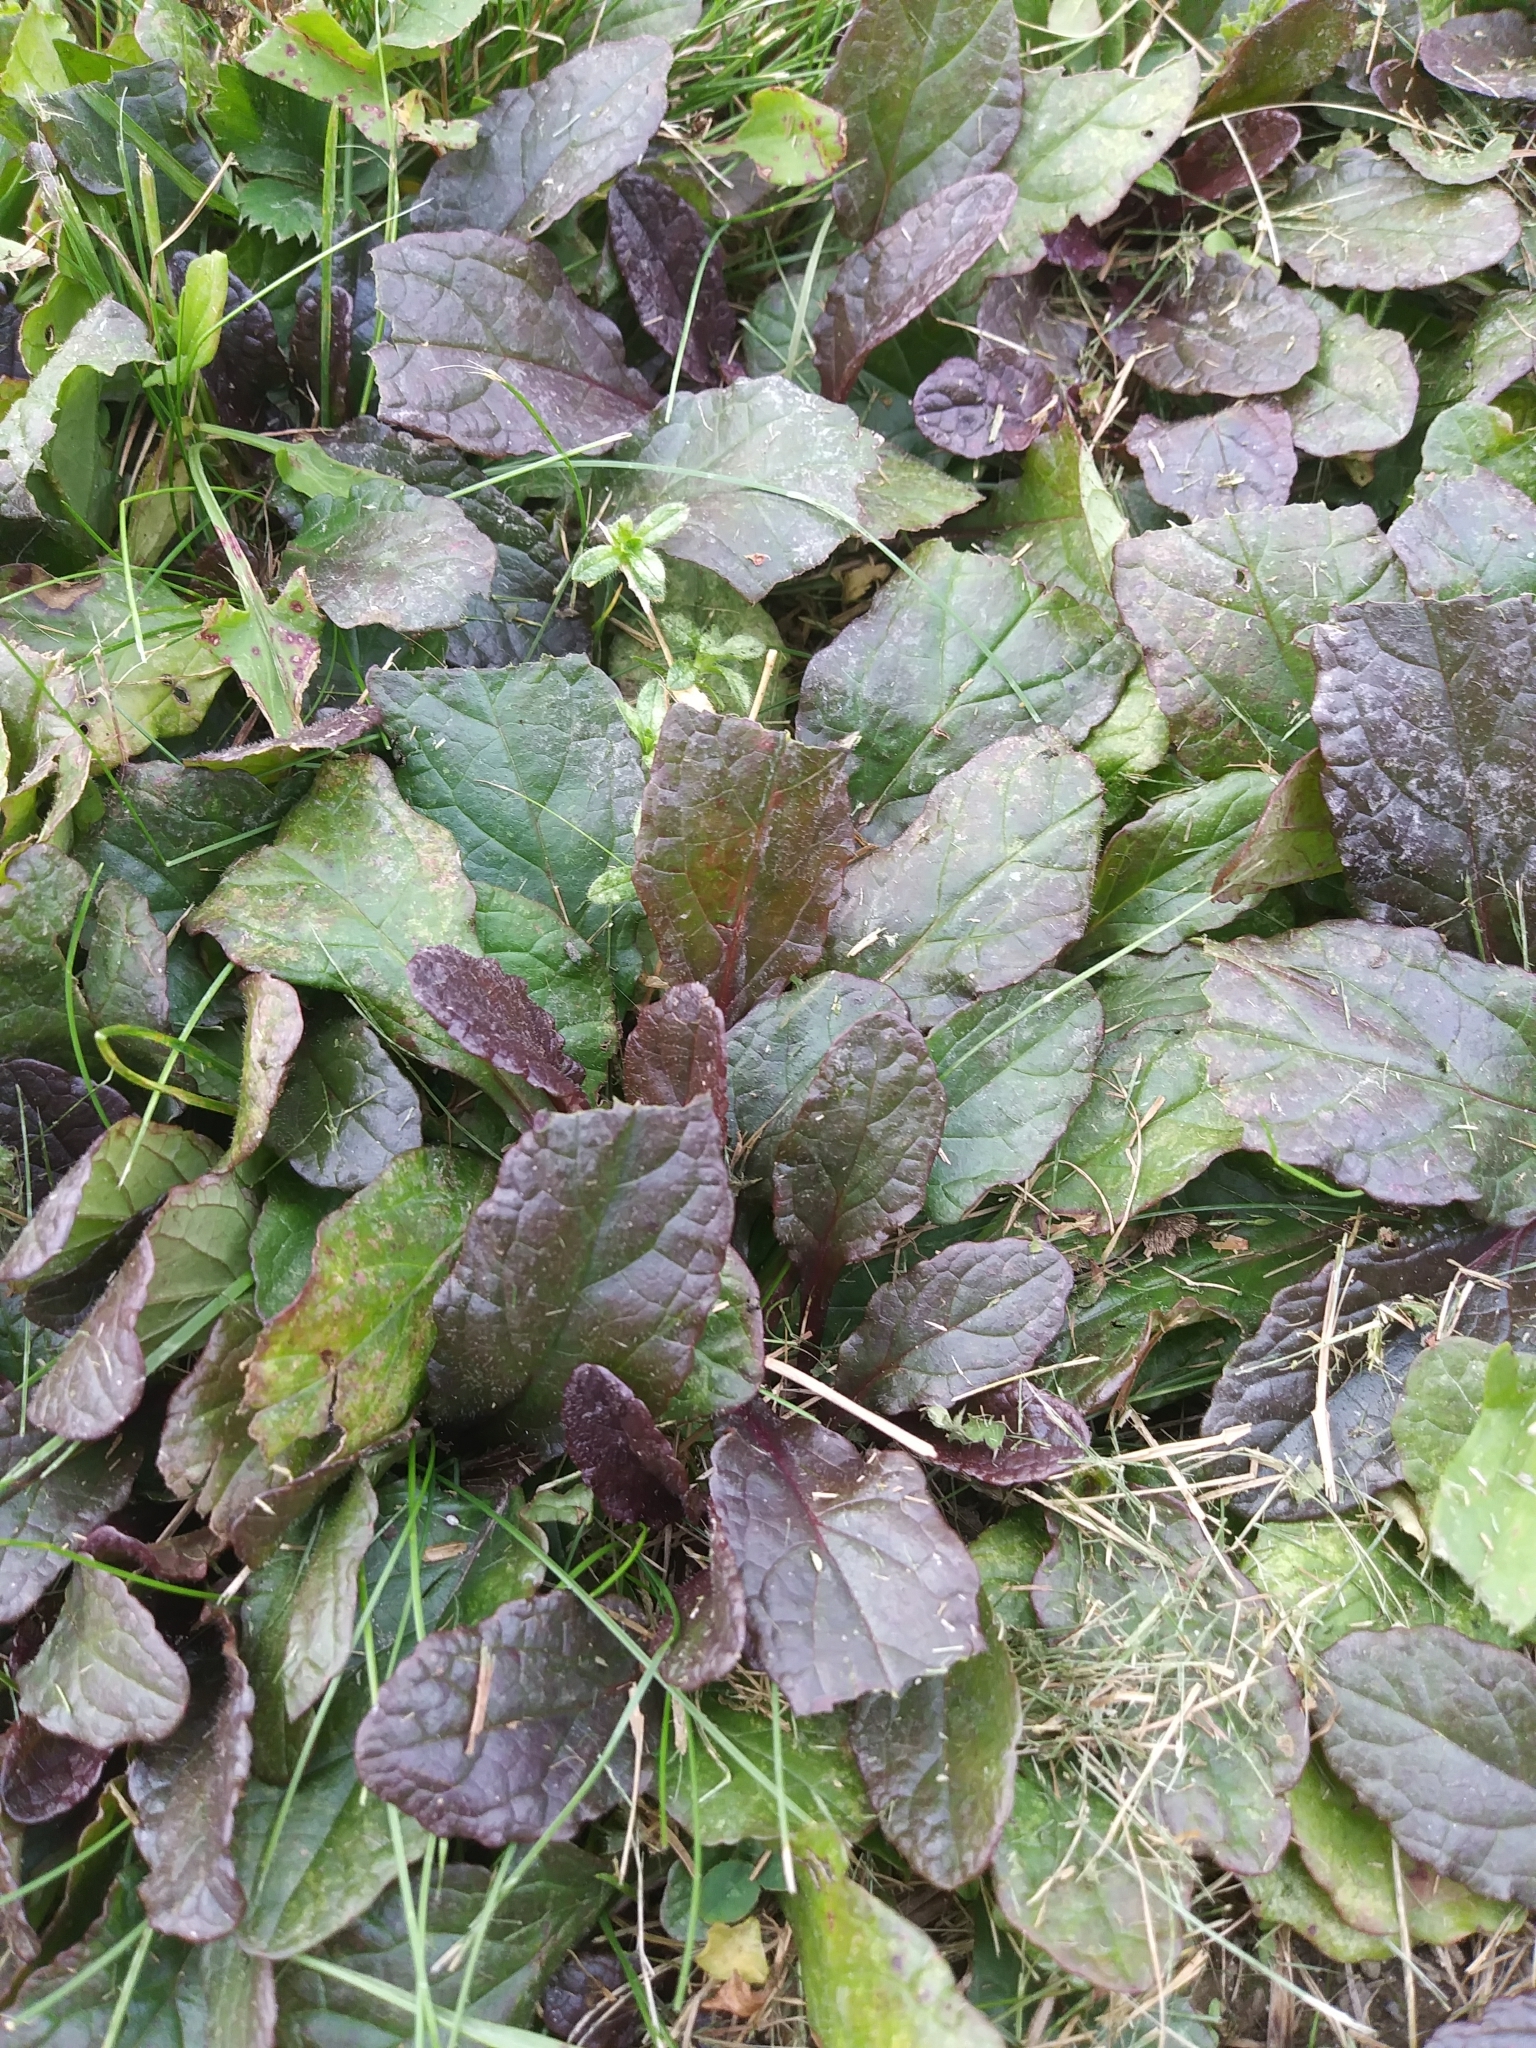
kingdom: Plantae
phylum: Tracheophyta
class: Magnoliopsida
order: Lamiales
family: Lamiaceae
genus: Ajuga
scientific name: Ajuga reptans
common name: Bugle
